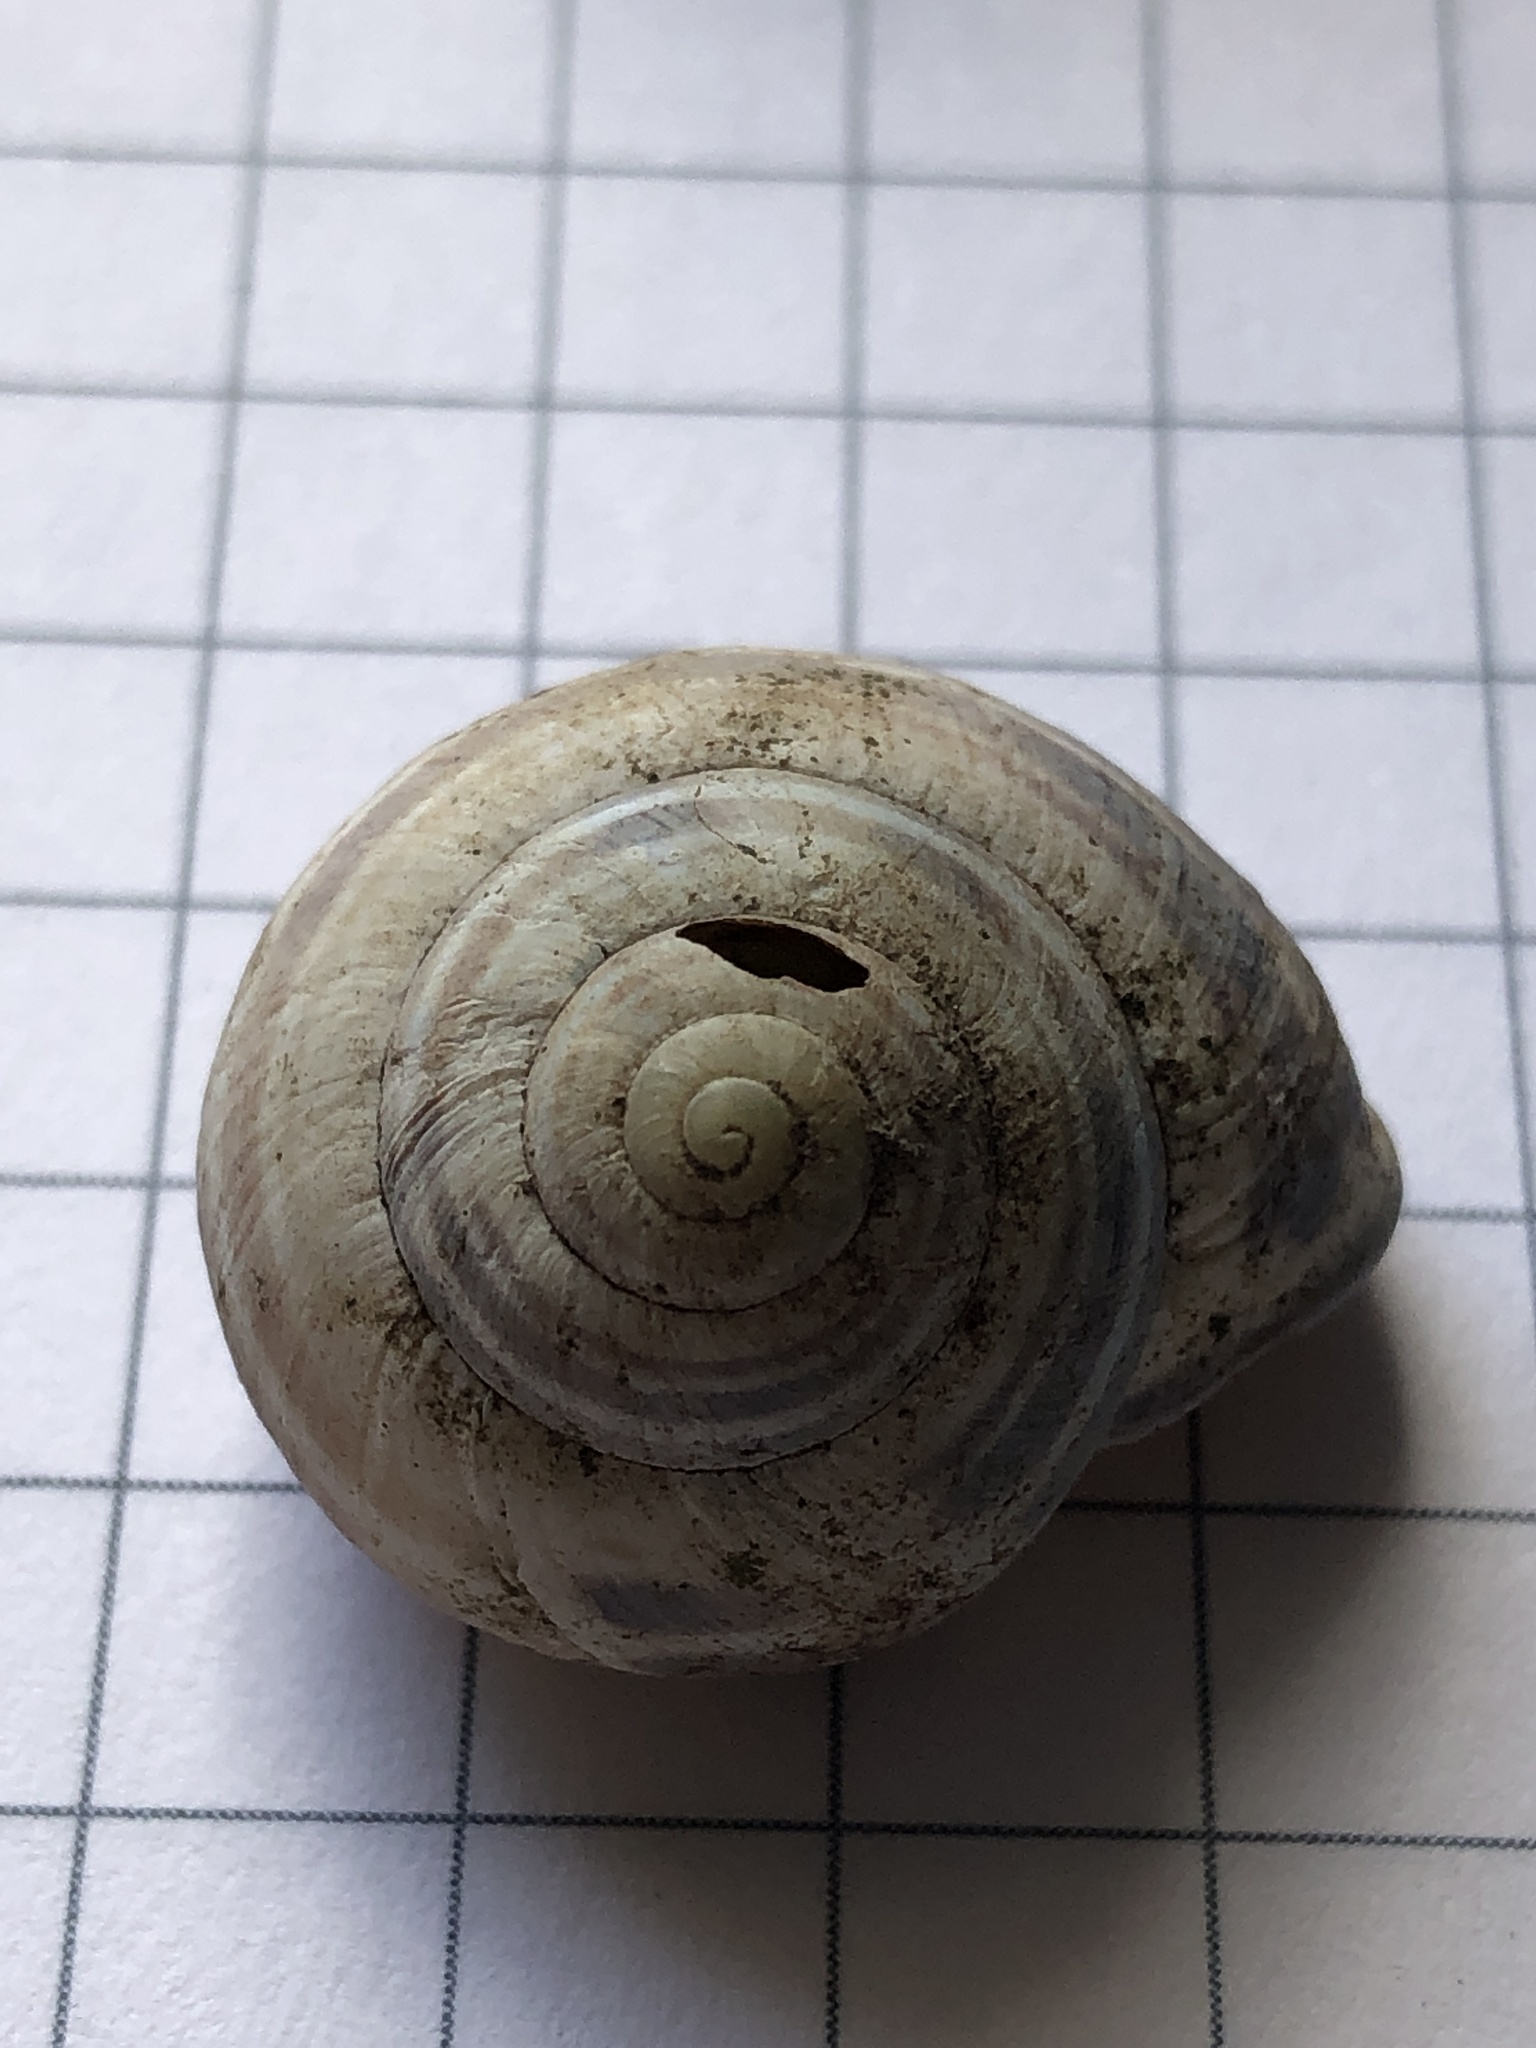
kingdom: Animalia
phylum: Mollusca
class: Gastropoda
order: Stylommatophora
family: Helicidae
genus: Cepaea
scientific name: Cepaea nemoralis
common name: Grovesnail
